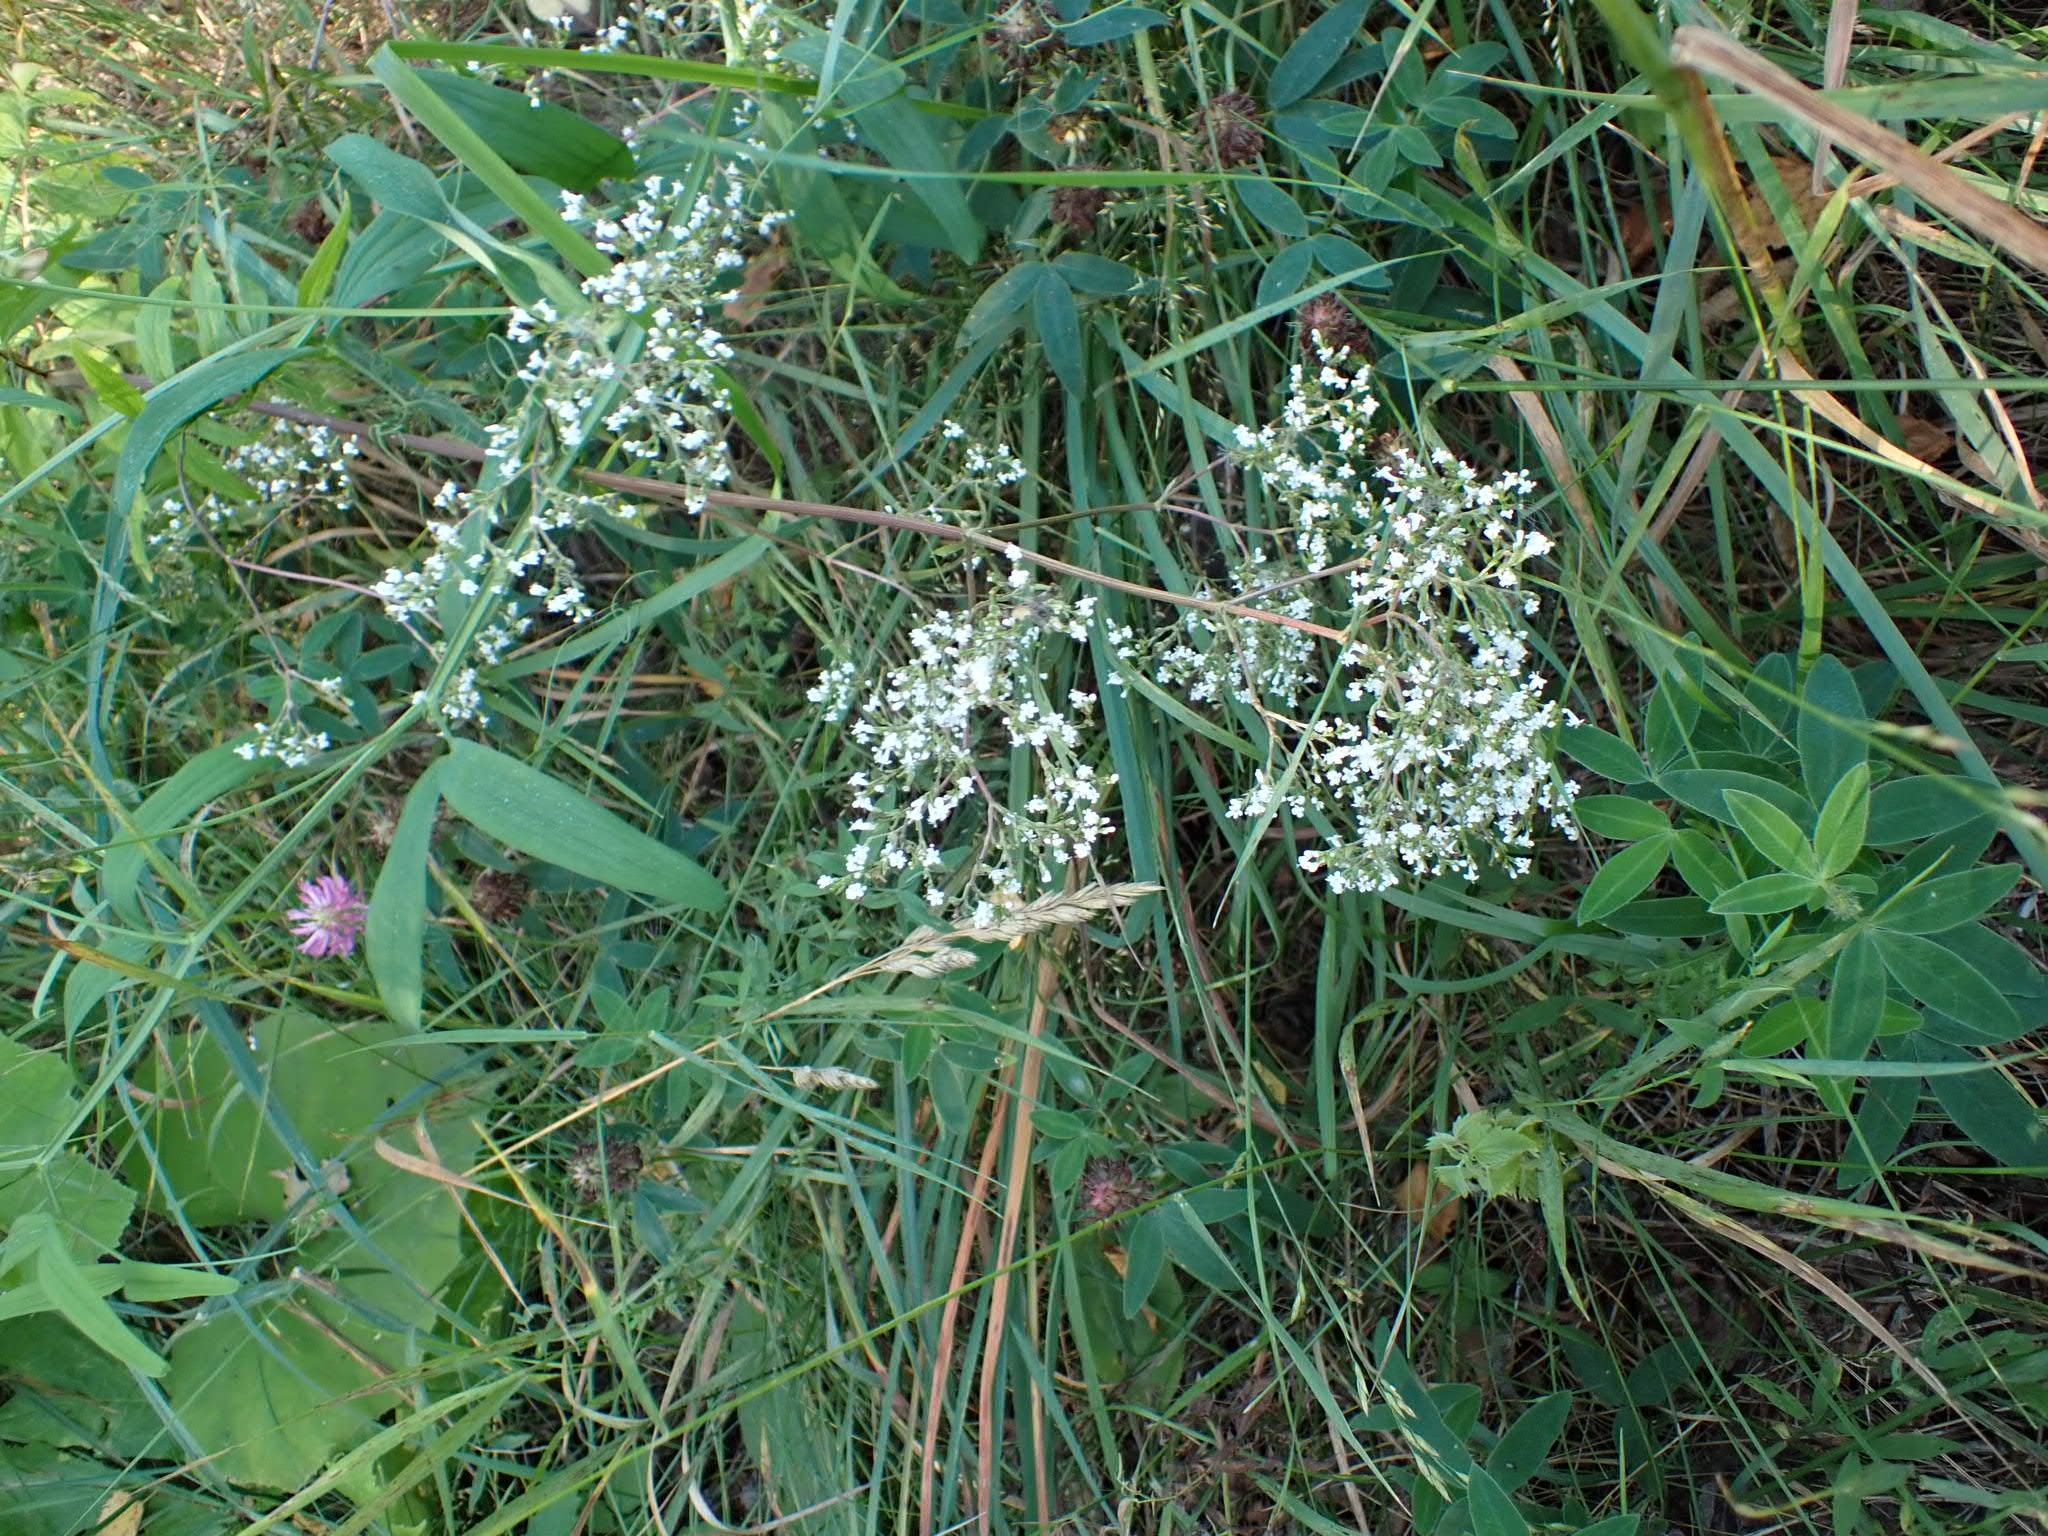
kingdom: Plantae
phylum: Tracheophyta
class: Magnoliopsida
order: Gentianales
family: Rubiaceae
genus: Galium
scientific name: Galium boreale
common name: Northern bedstraw
